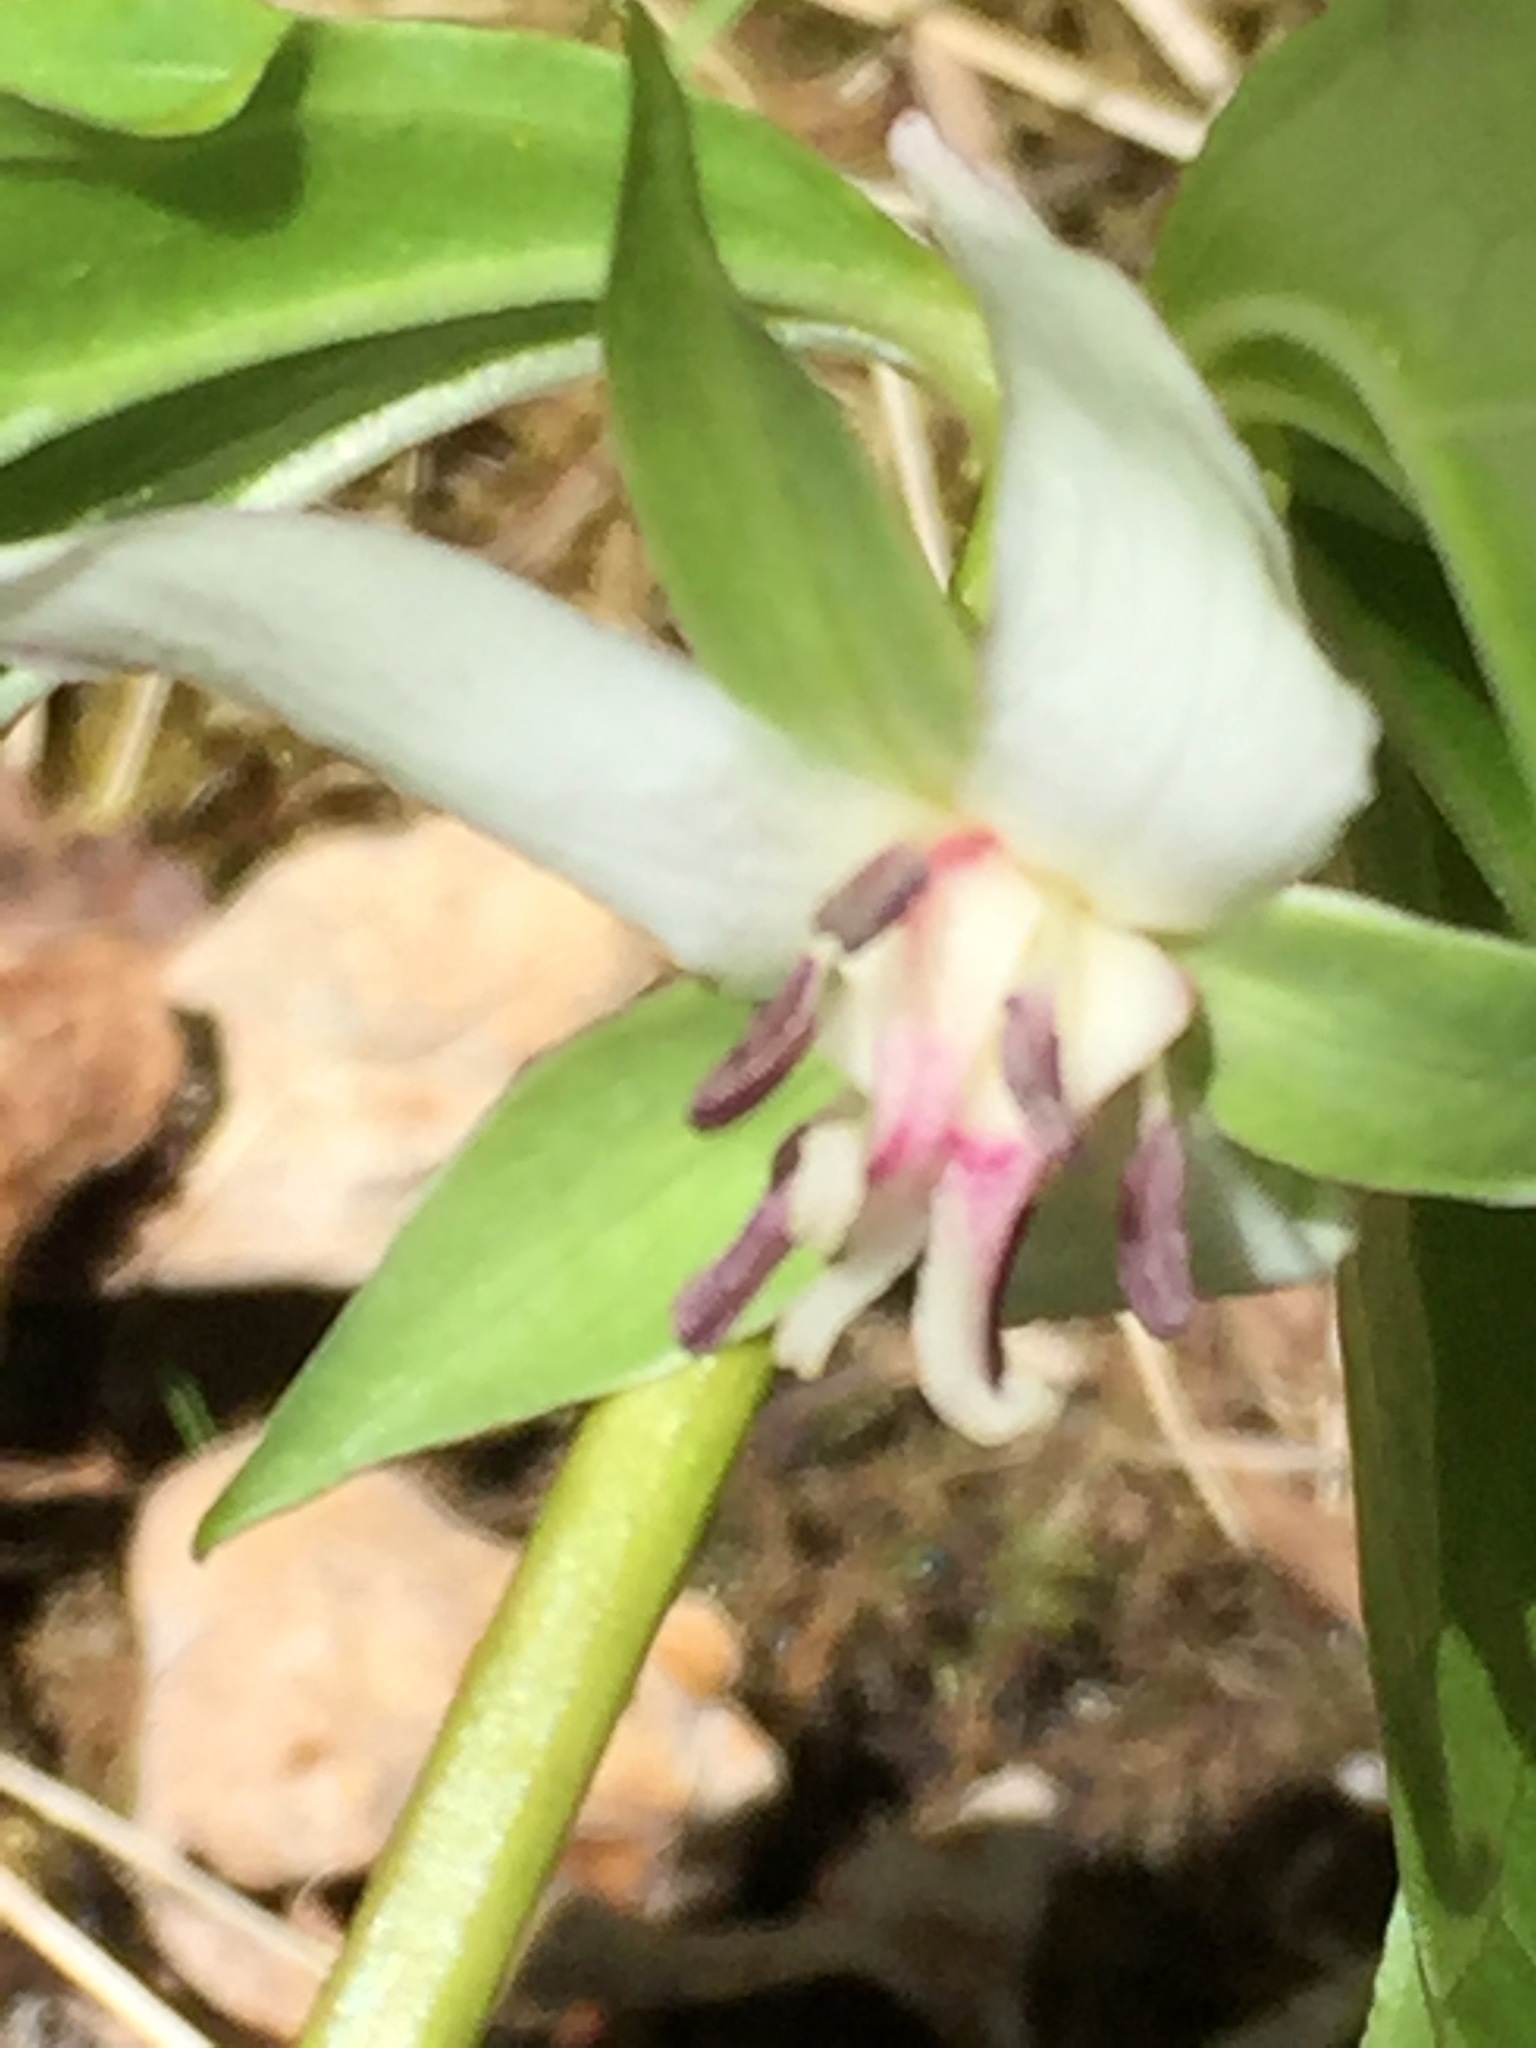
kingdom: Plantae
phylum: Tracheophyta
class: Liliopsida
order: Liliales
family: Melanthiaceae
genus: Trillium
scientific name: Trillium cernuum
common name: Nodding trillium
